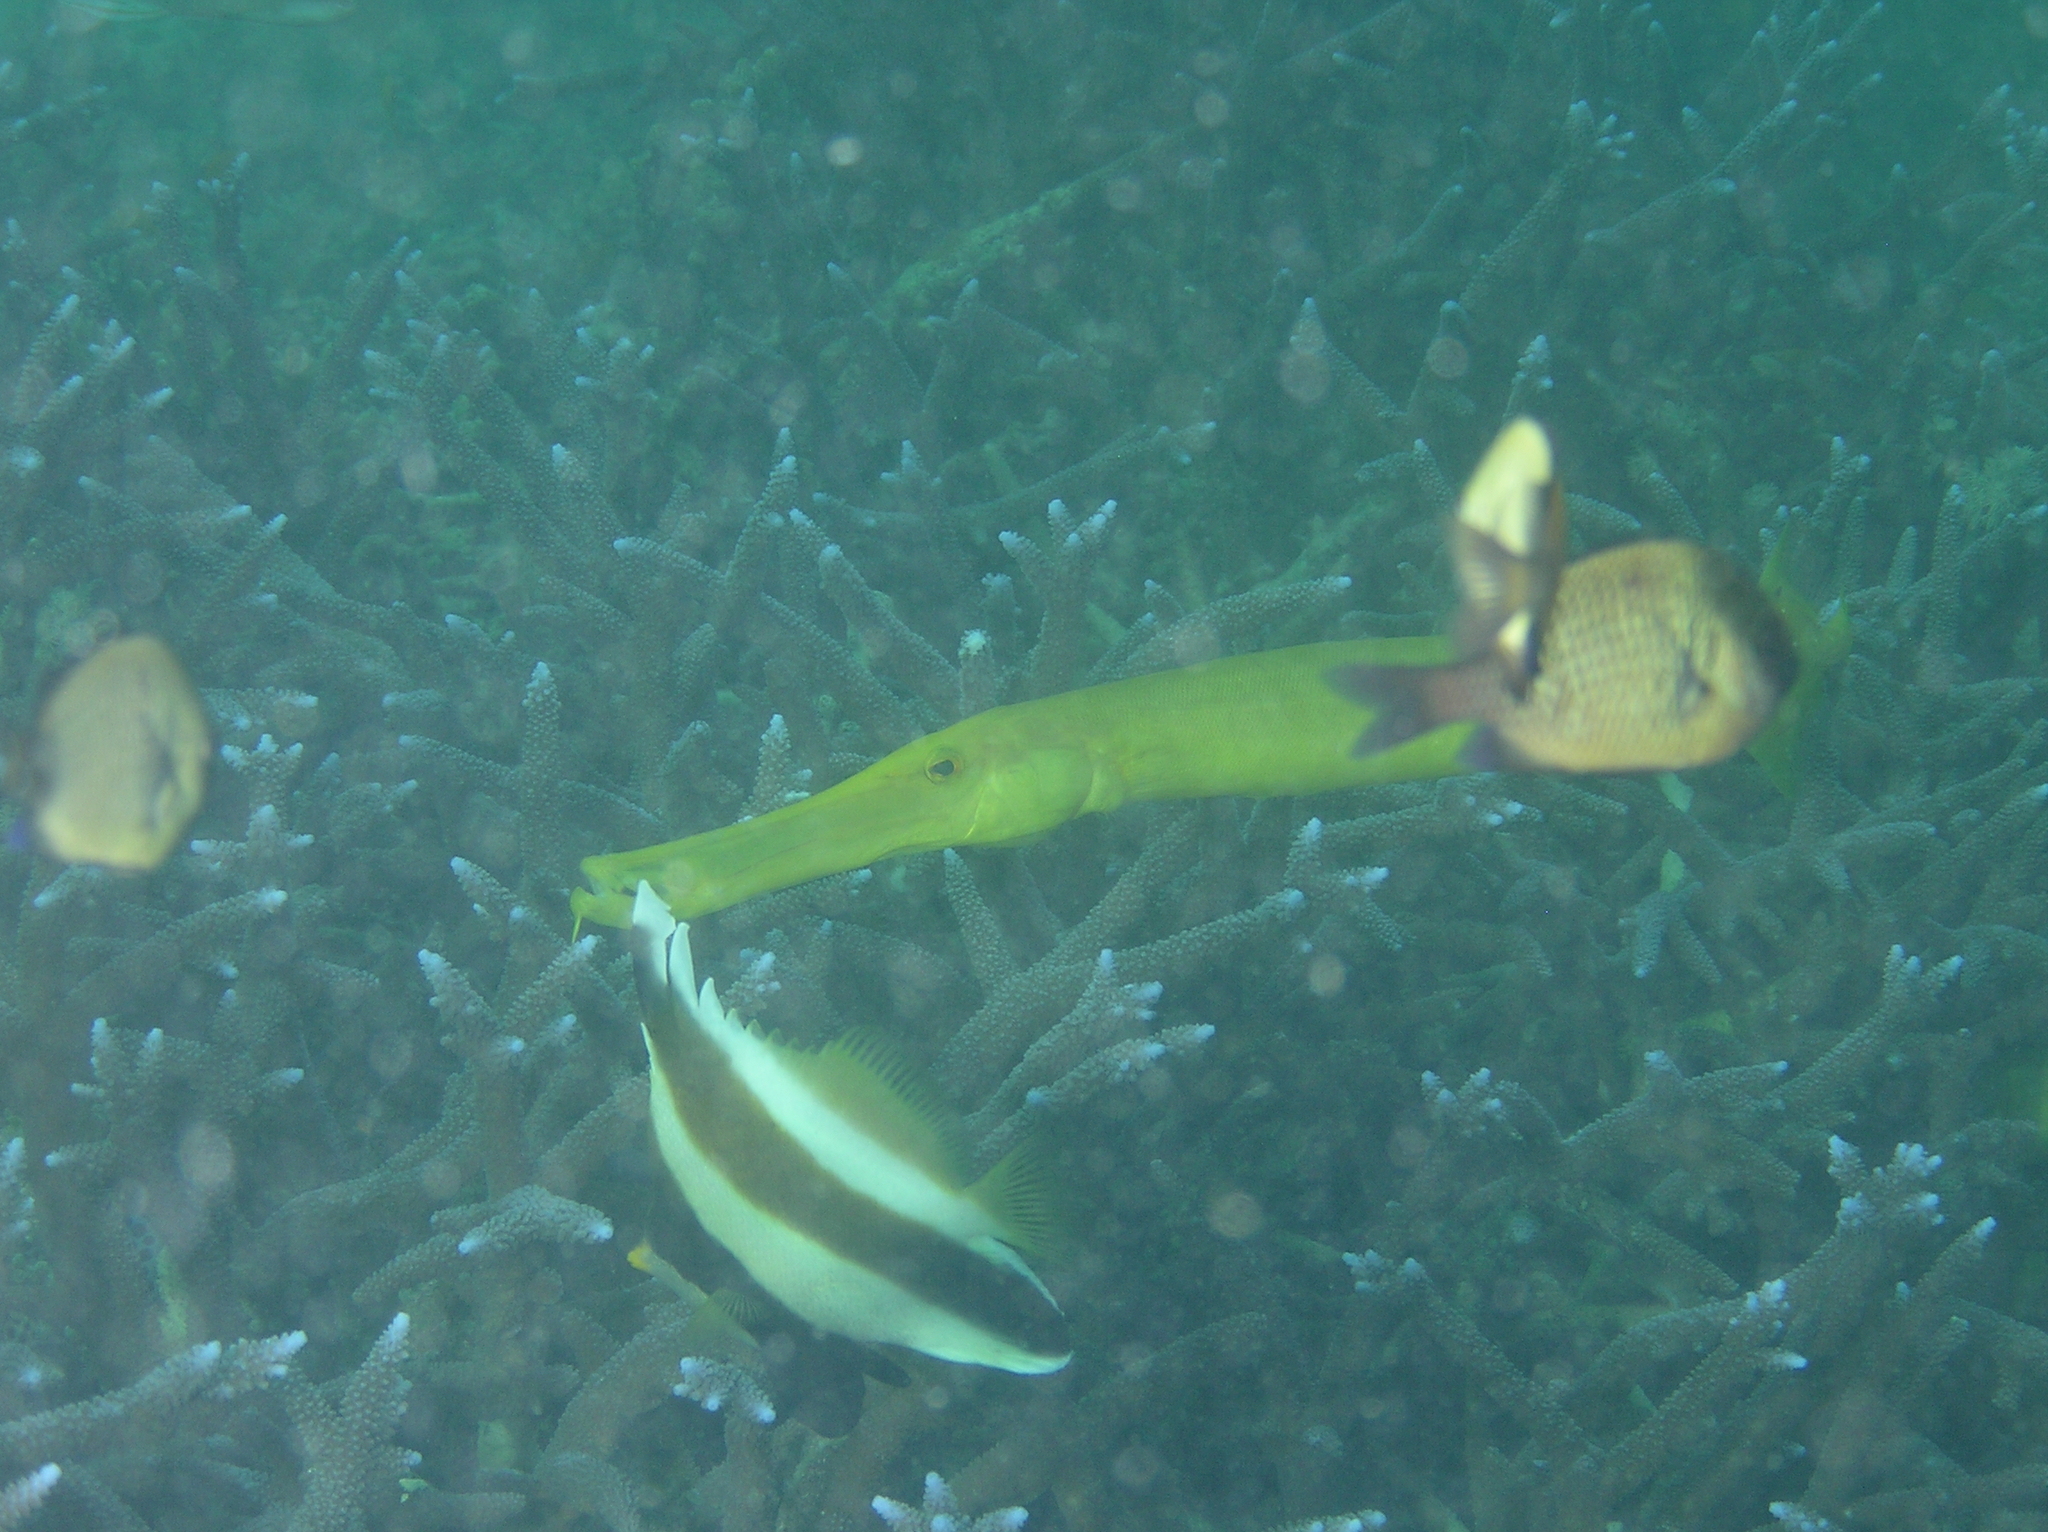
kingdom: Animalia
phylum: Chordata
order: Perciformes
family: Chaetodontidae
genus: Heniochus
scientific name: Heniochus chrysostomus
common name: Horned bannerfish
